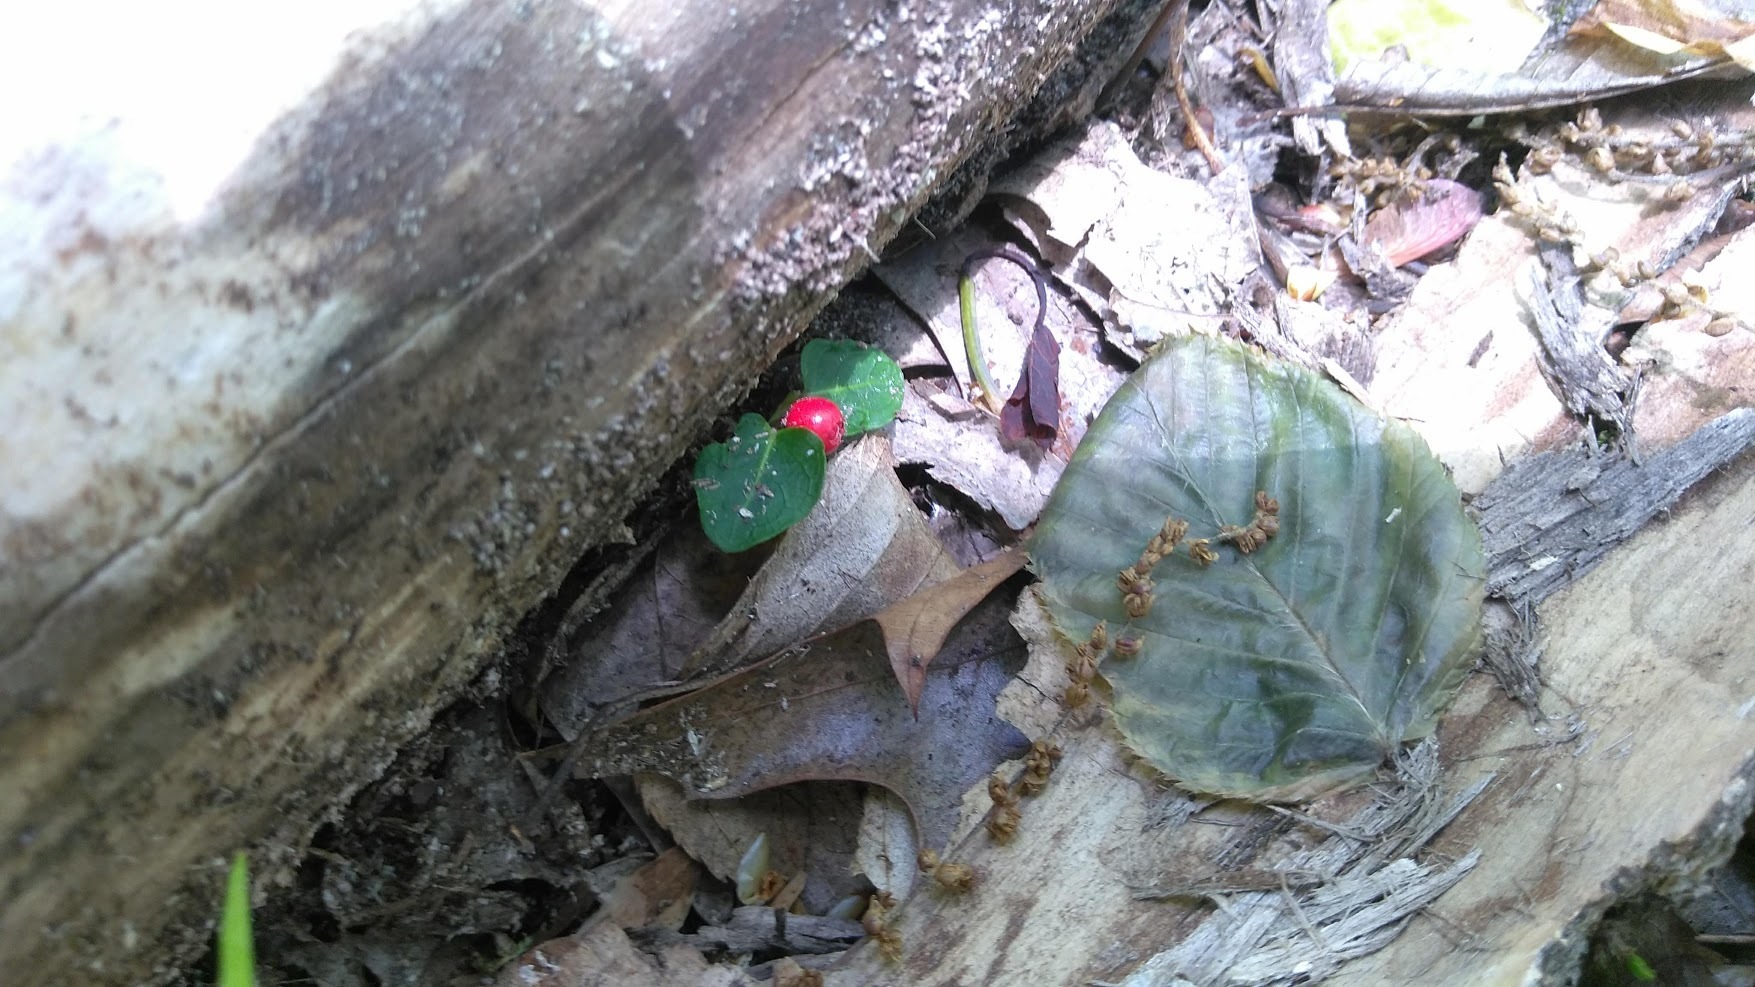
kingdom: Plantae
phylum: Tracheophyta
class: Magnoliopsida
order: Gentianales
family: Rubiaceae
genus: Mitchella
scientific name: Mitchella repens
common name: Partridge-berry
